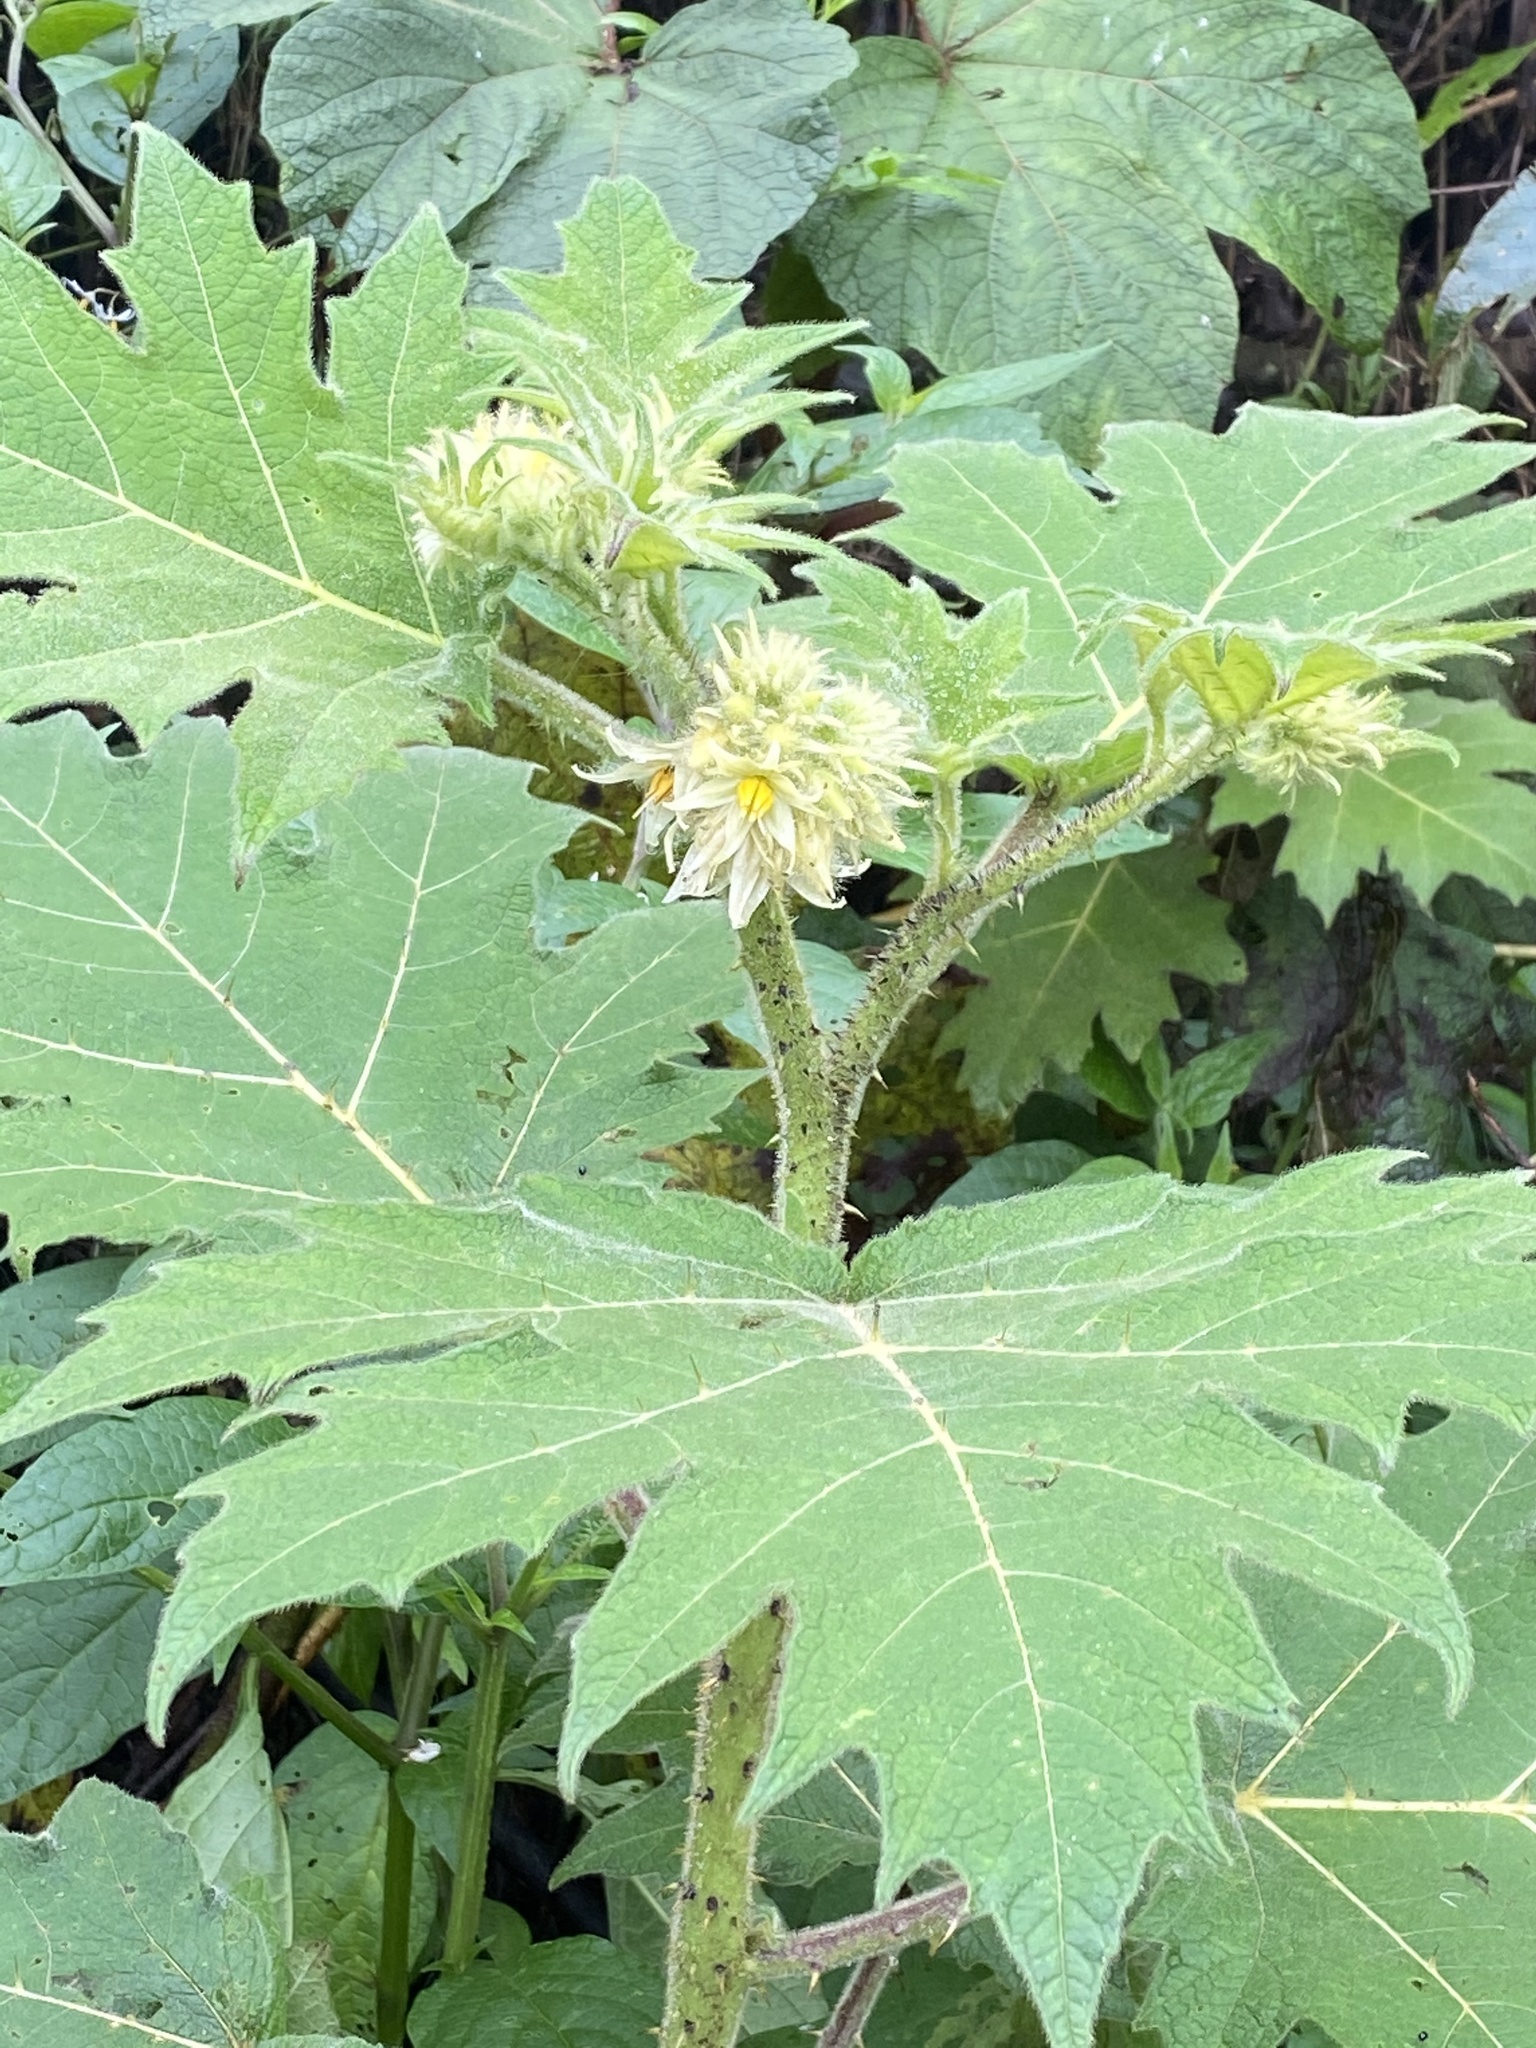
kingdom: Plantae
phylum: Tracheophyta
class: Magnoliopsida
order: Solanales
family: Solanaceae
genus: Solanum
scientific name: Solanum lhotskyanum
